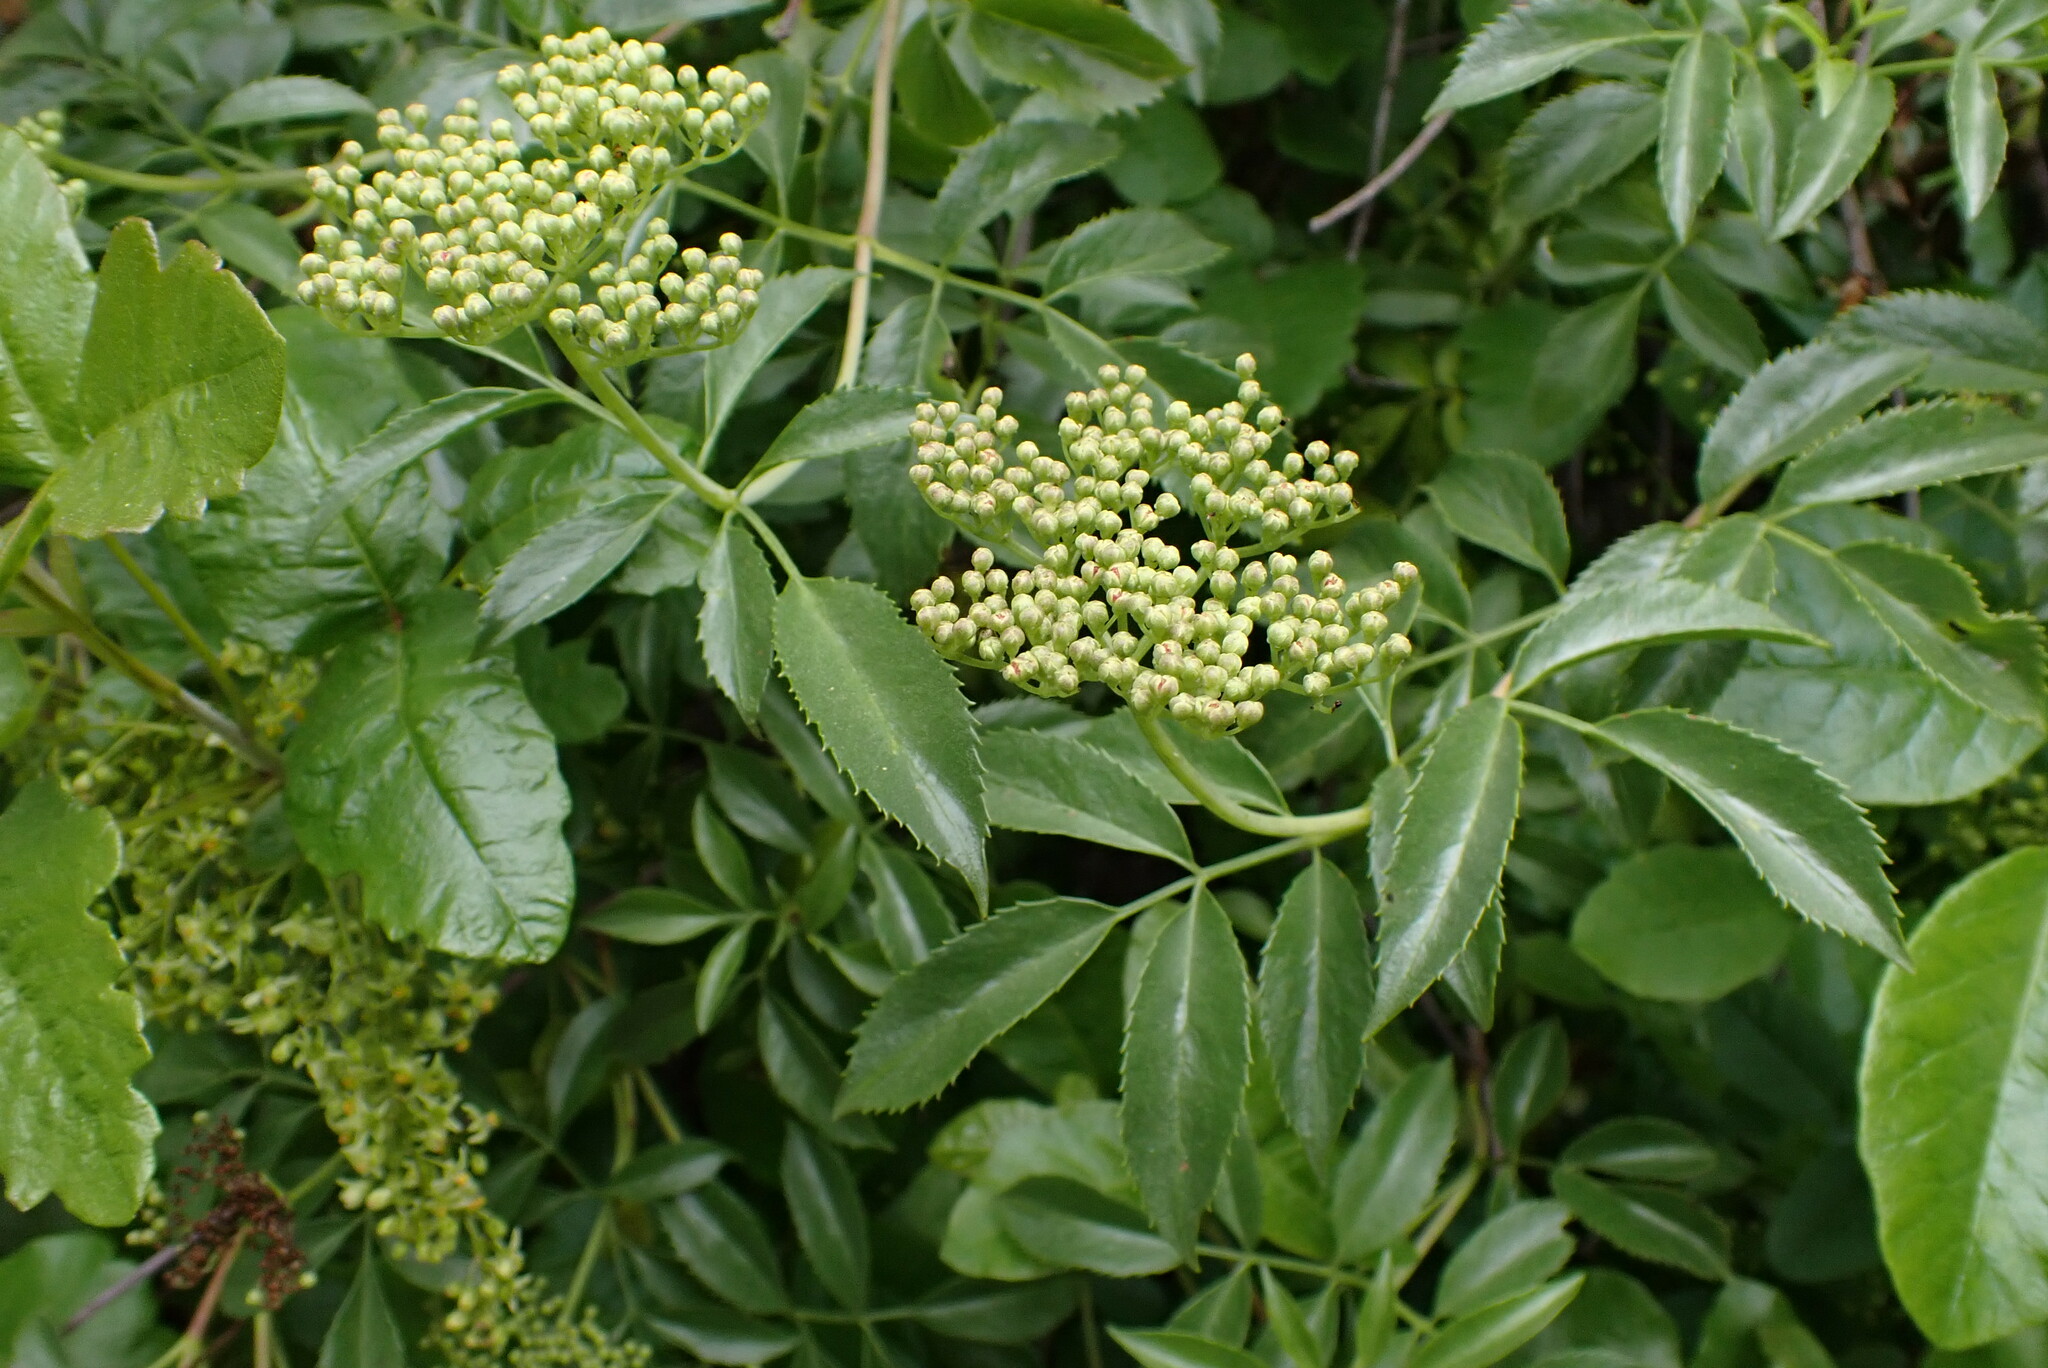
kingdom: Plantae
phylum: Tracheophyta
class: Magnoliopsida
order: Dipsacales
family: Viburnaceae
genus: Sambucus
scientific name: Sambucus cerulea
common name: Blue elder
